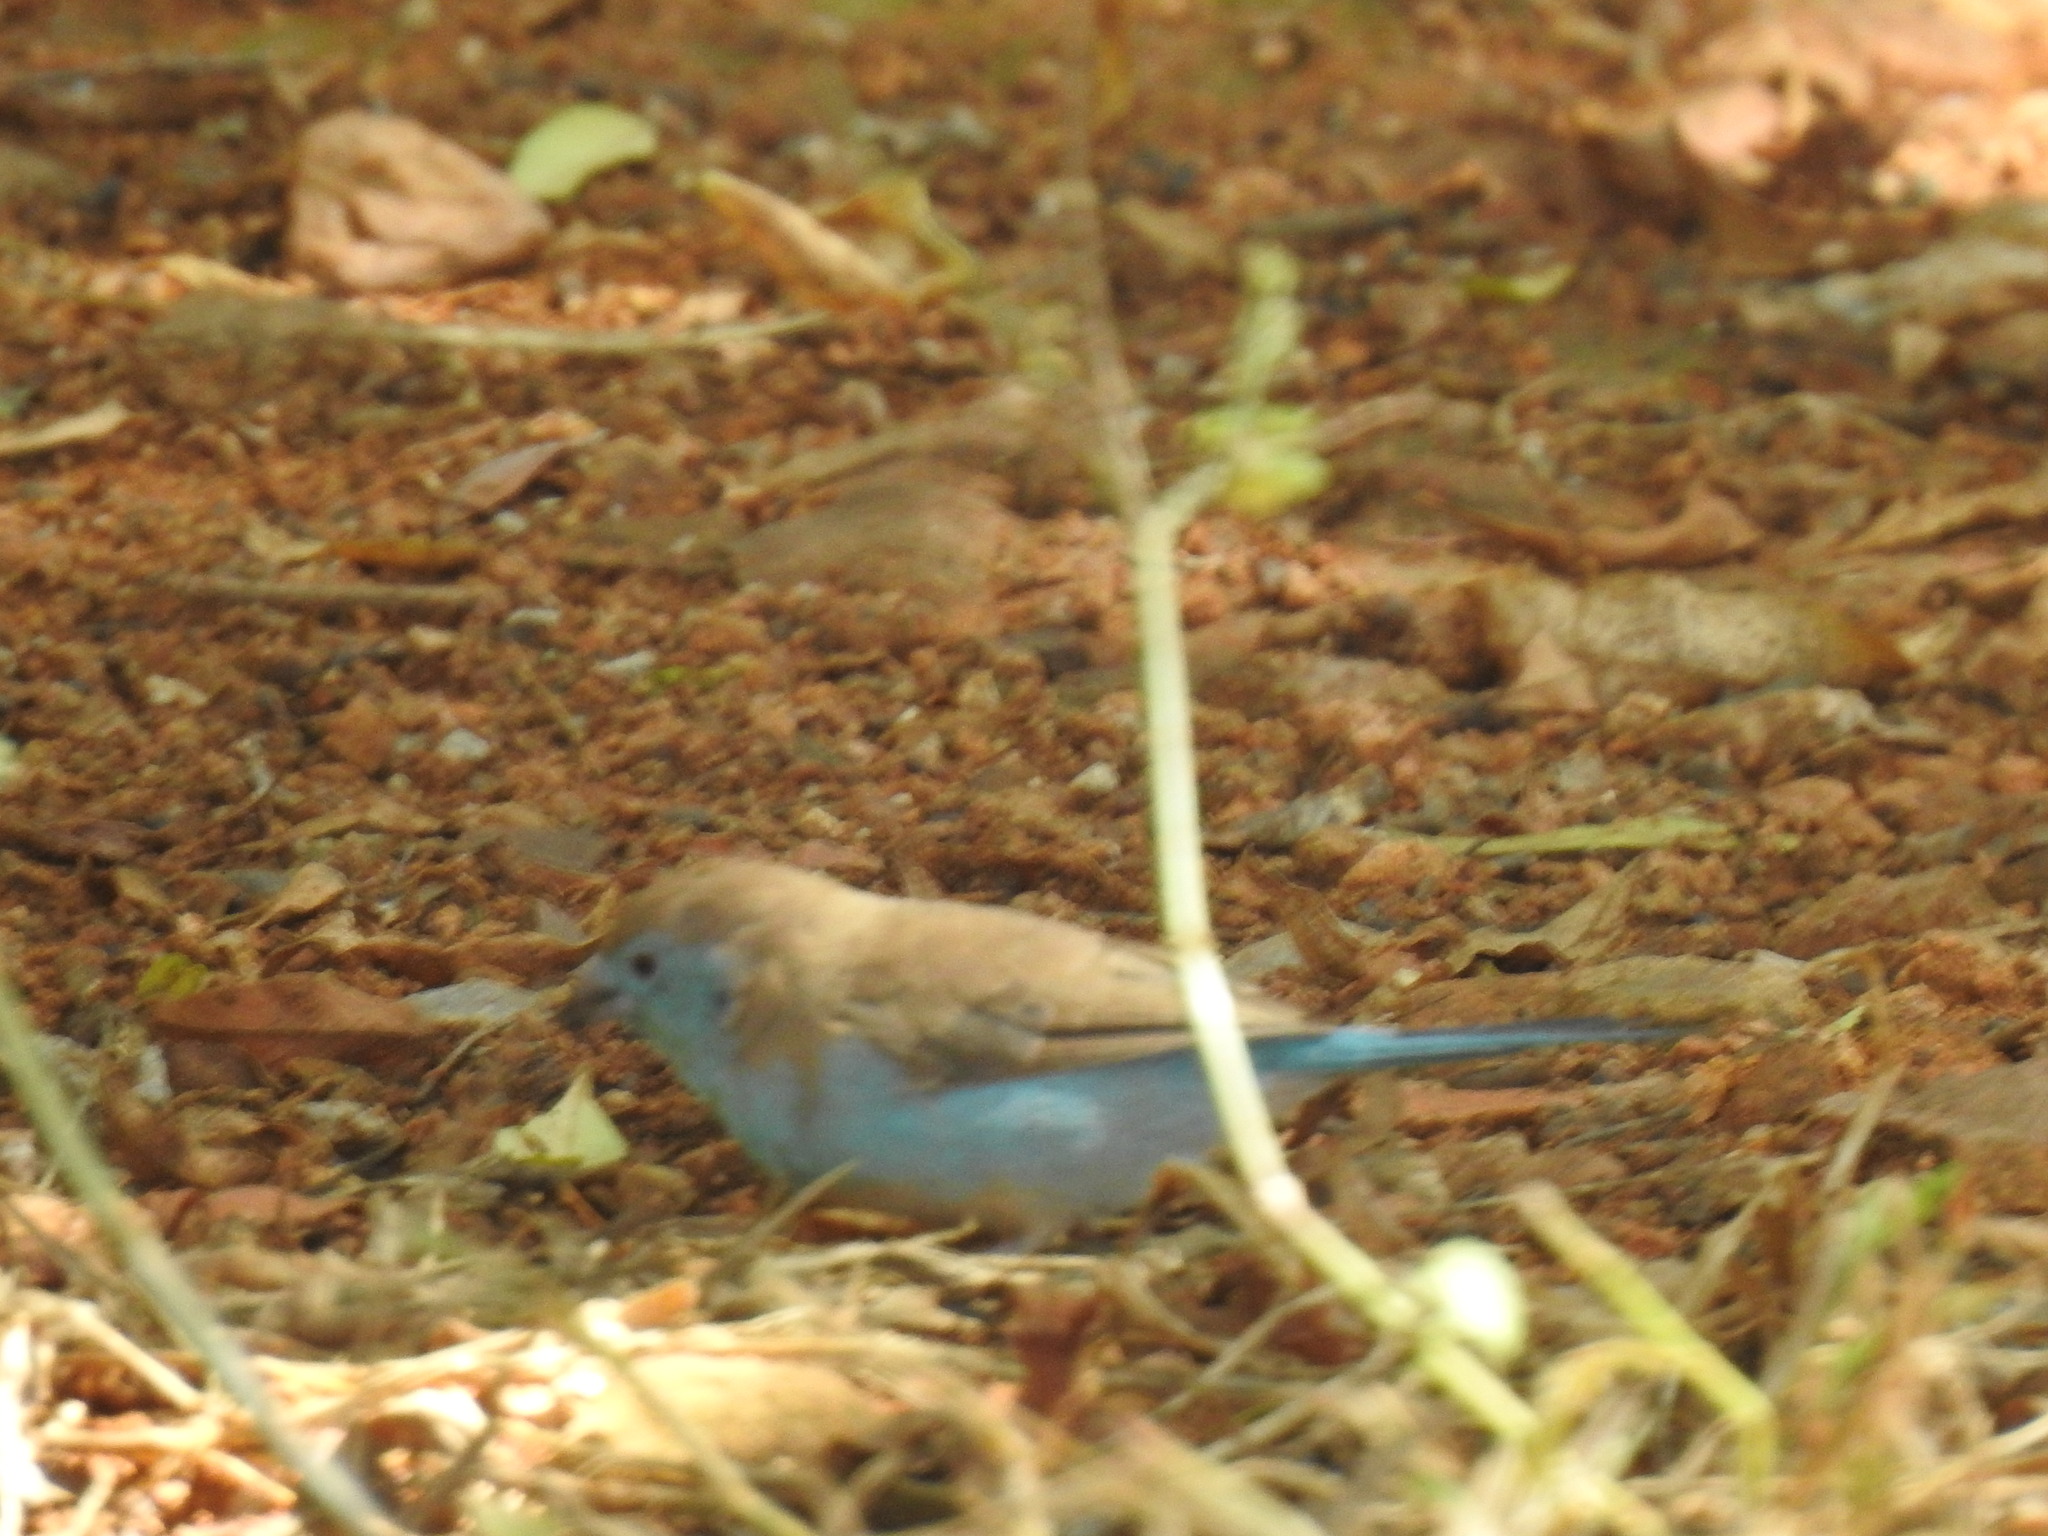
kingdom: Animalia
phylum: Chordata
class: Aves
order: Passeriformes
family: Estrildidae
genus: Uraeginthus
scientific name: Uraeginthus angolensis
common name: Blue waxbill
